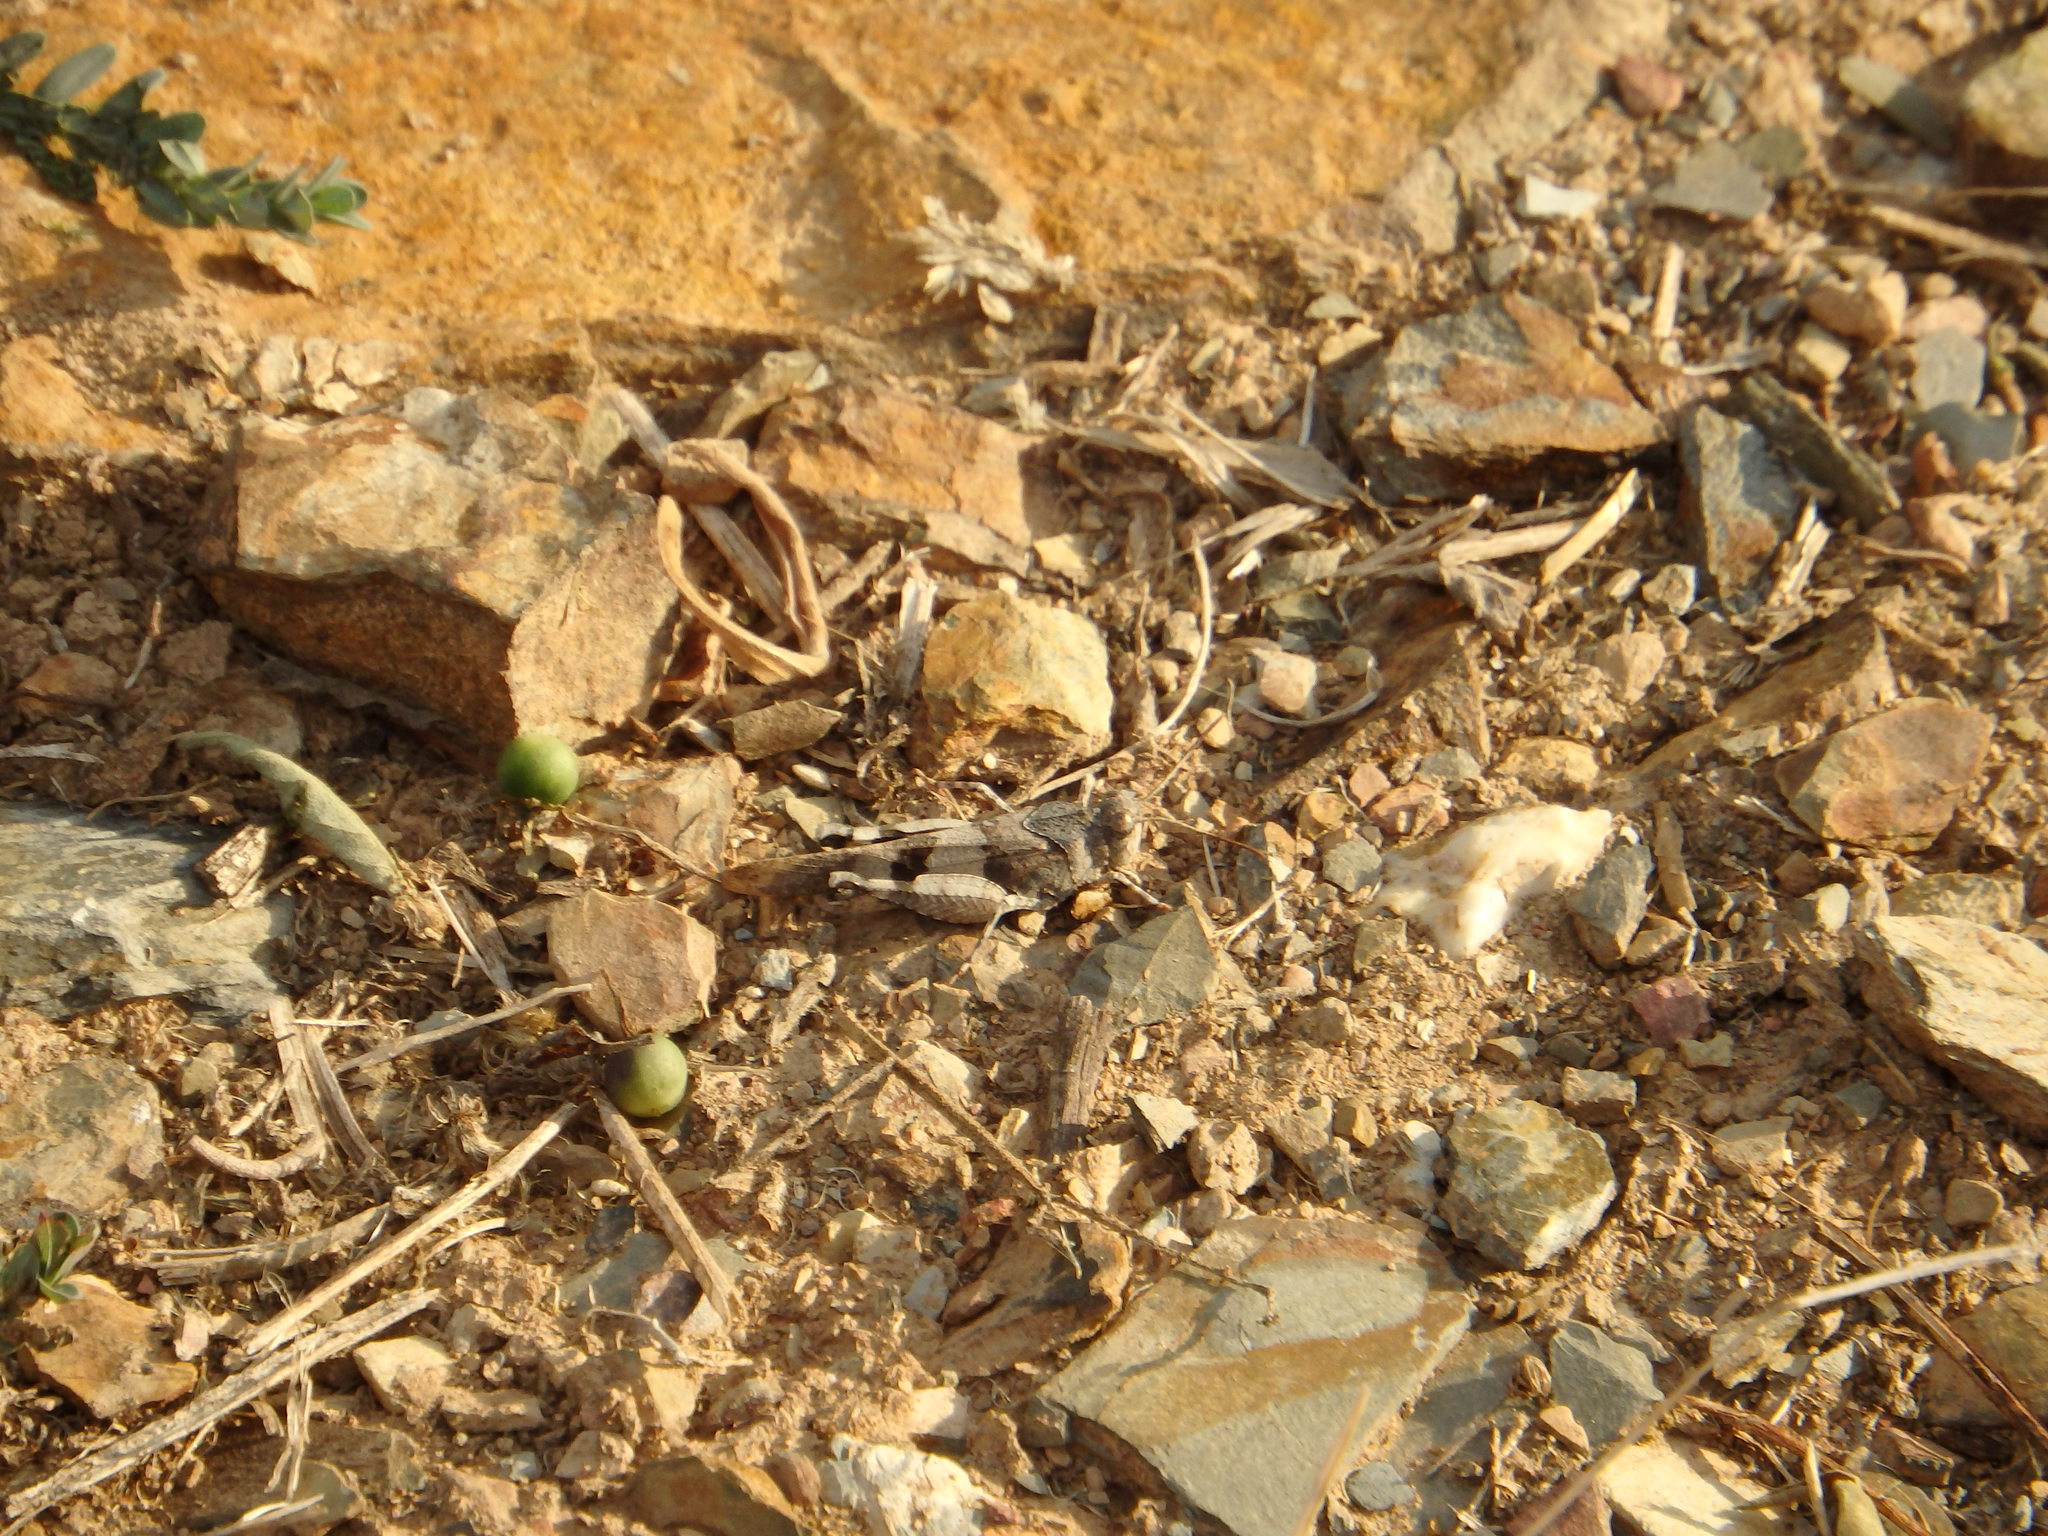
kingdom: Animalia
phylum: Arthropoda
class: Insecta
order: Orthoptera
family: Acrididae
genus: Oedipoda
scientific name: Oedipoda caerulescens
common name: Blue-winged grasshopper
